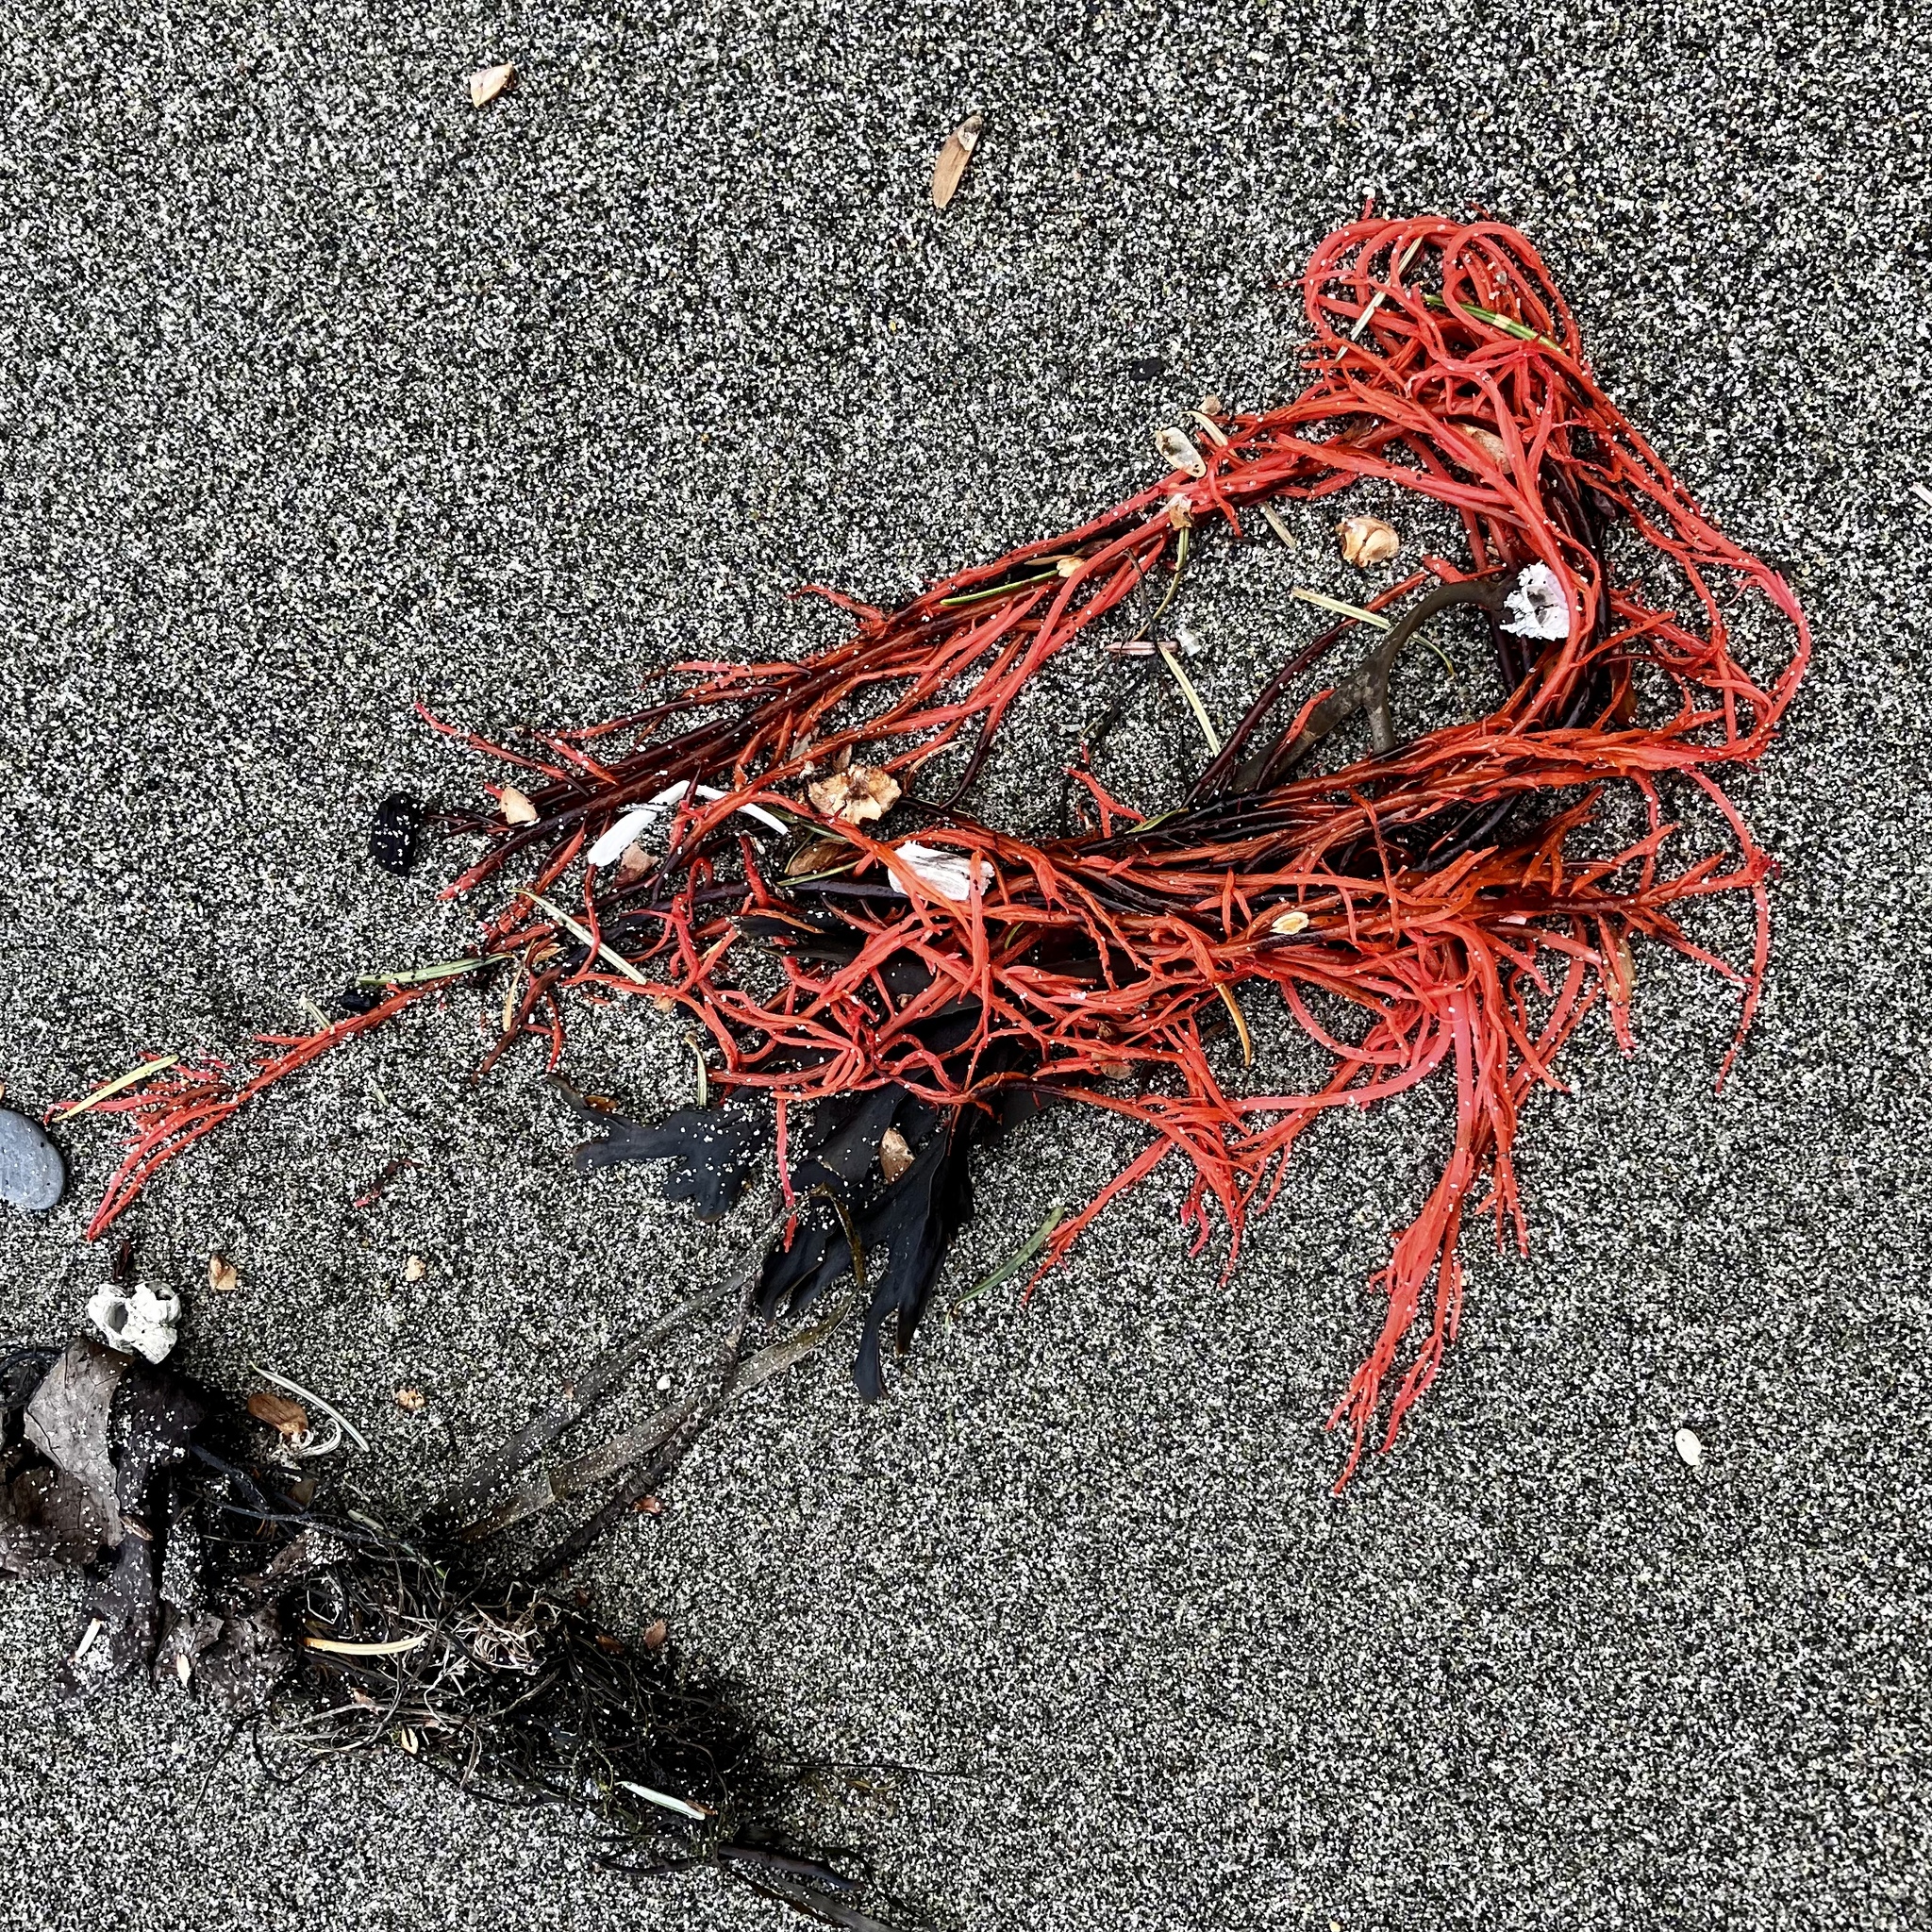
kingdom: Plantae
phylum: Rhodophyta
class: Florideophyceae
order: Gigartinales
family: Solieriaceae
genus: Sarcodiotheca
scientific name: Sarcodiotheca gaudichaudii
